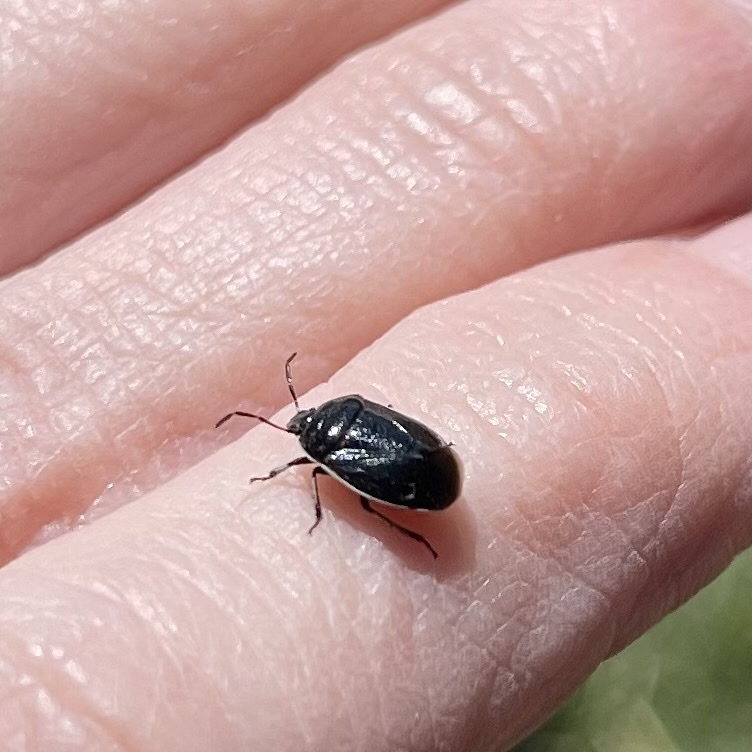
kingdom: Animalia
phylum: Arthropoda
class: Insecta
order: Hemiptera
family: Cydnidae
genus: Sehirus
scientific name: Sehirus cinctus
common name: White-margined burrower bug
